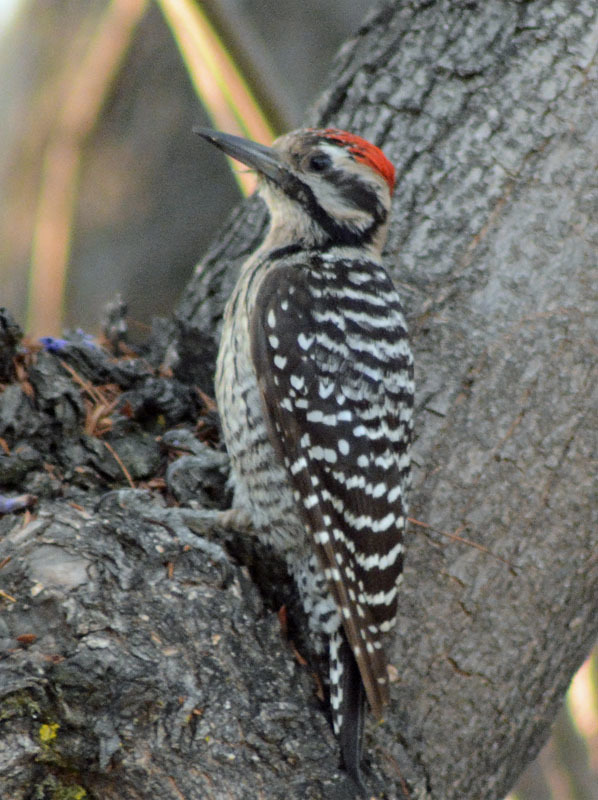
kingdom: Animalia
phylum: Chordata
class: Aves
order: Piciformes
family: Picidae
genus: Dryobates
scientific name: Dryobates scalaris
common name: Ladder-backed woodpecker
